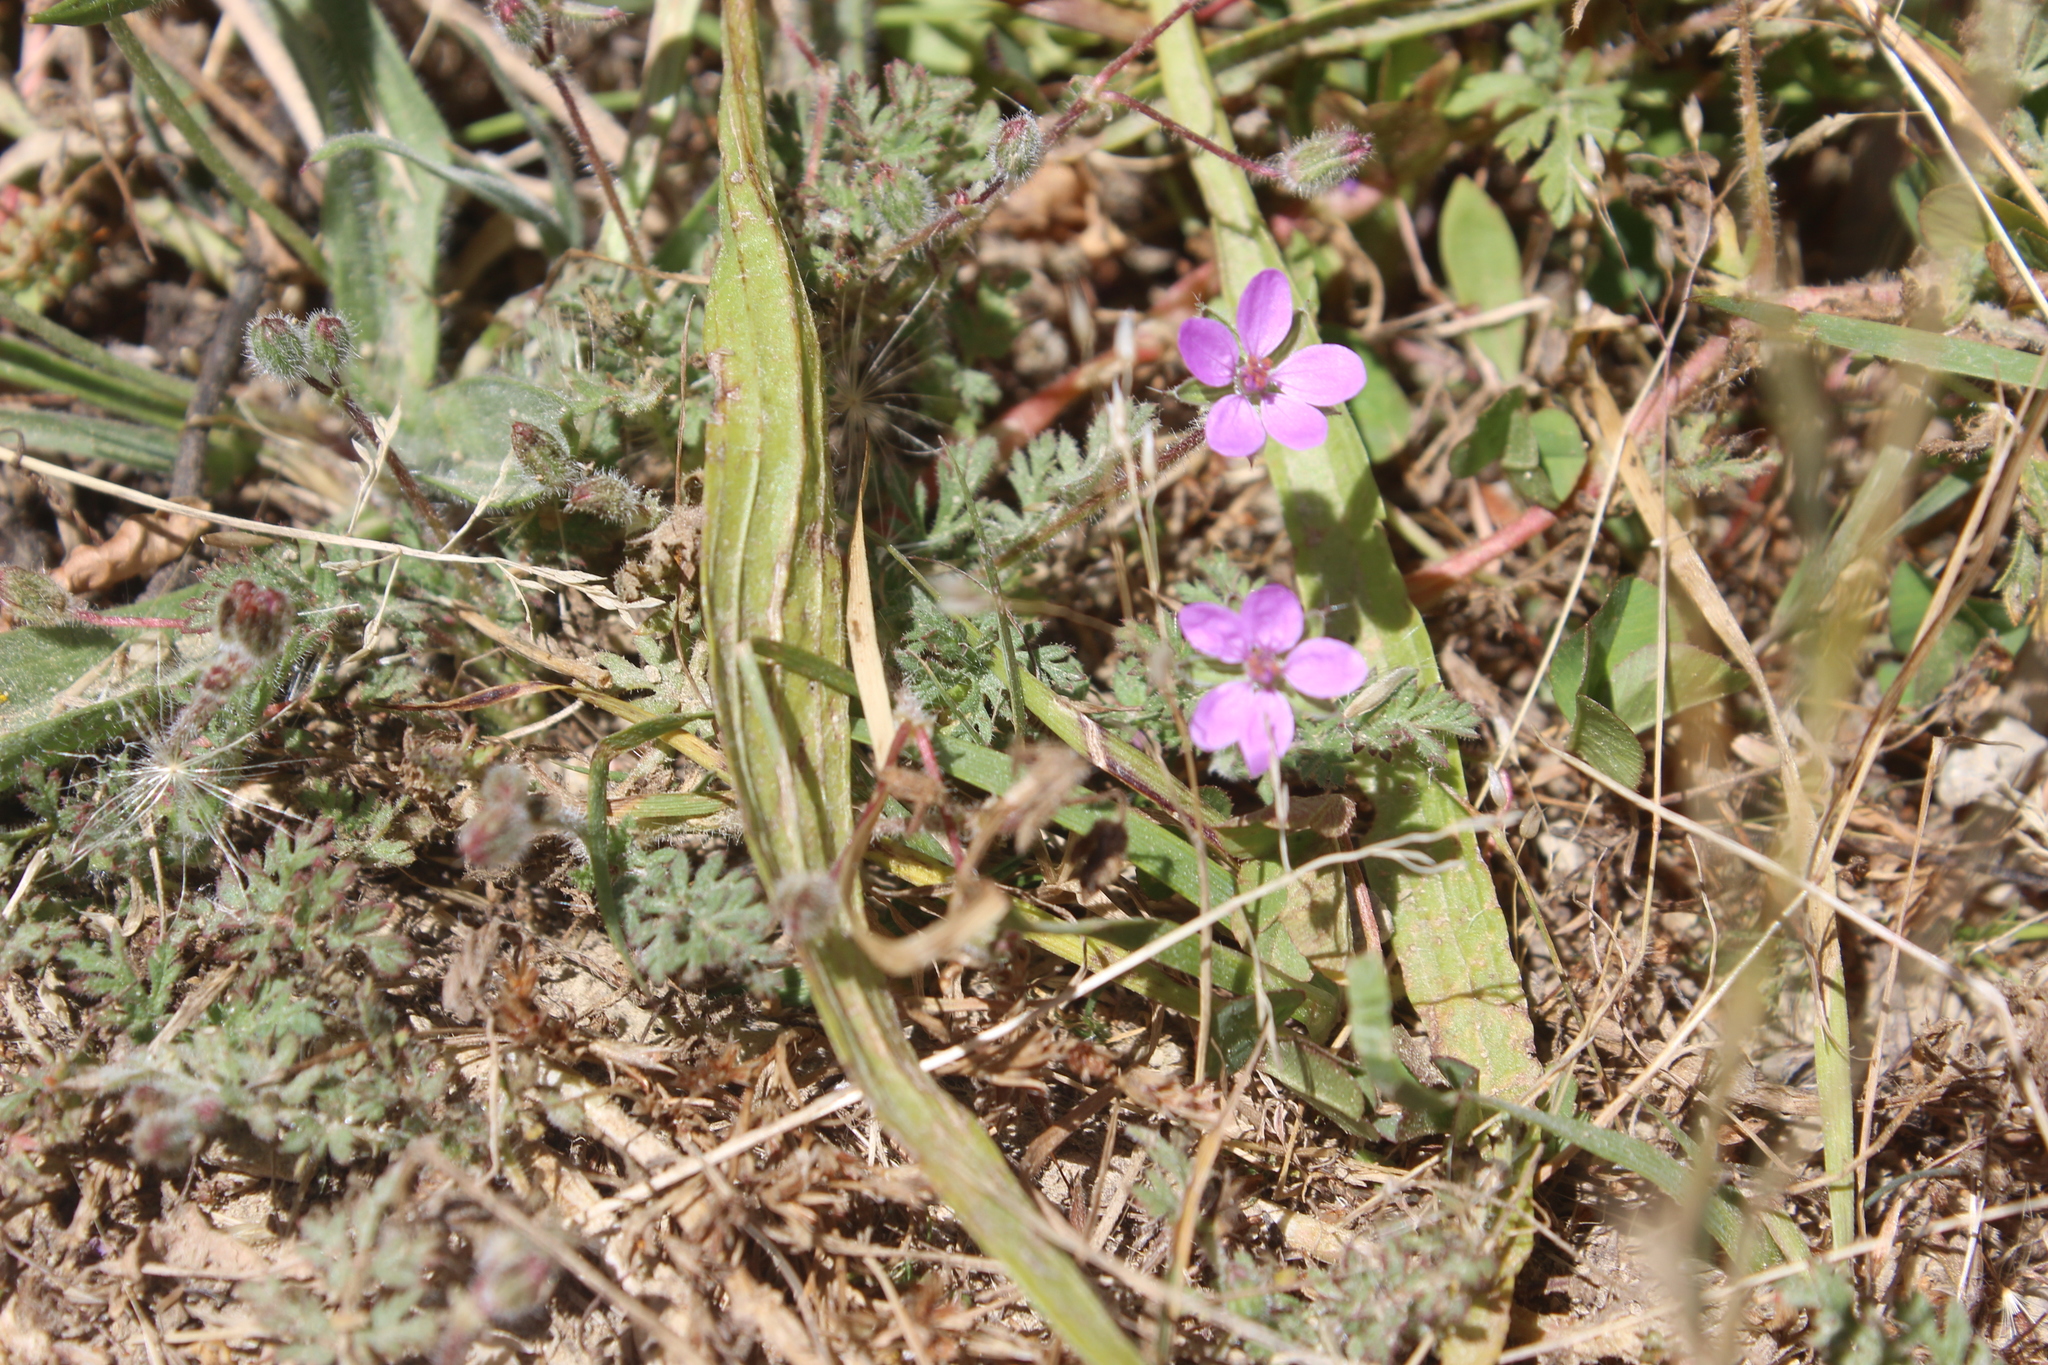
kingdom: Plantae
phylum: Tracheophyta
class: Magnoliopsida
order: Geraniales
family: Geraniaceae
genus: Erodium
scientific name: Erodium cicutarium
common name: Common stork's-bill
